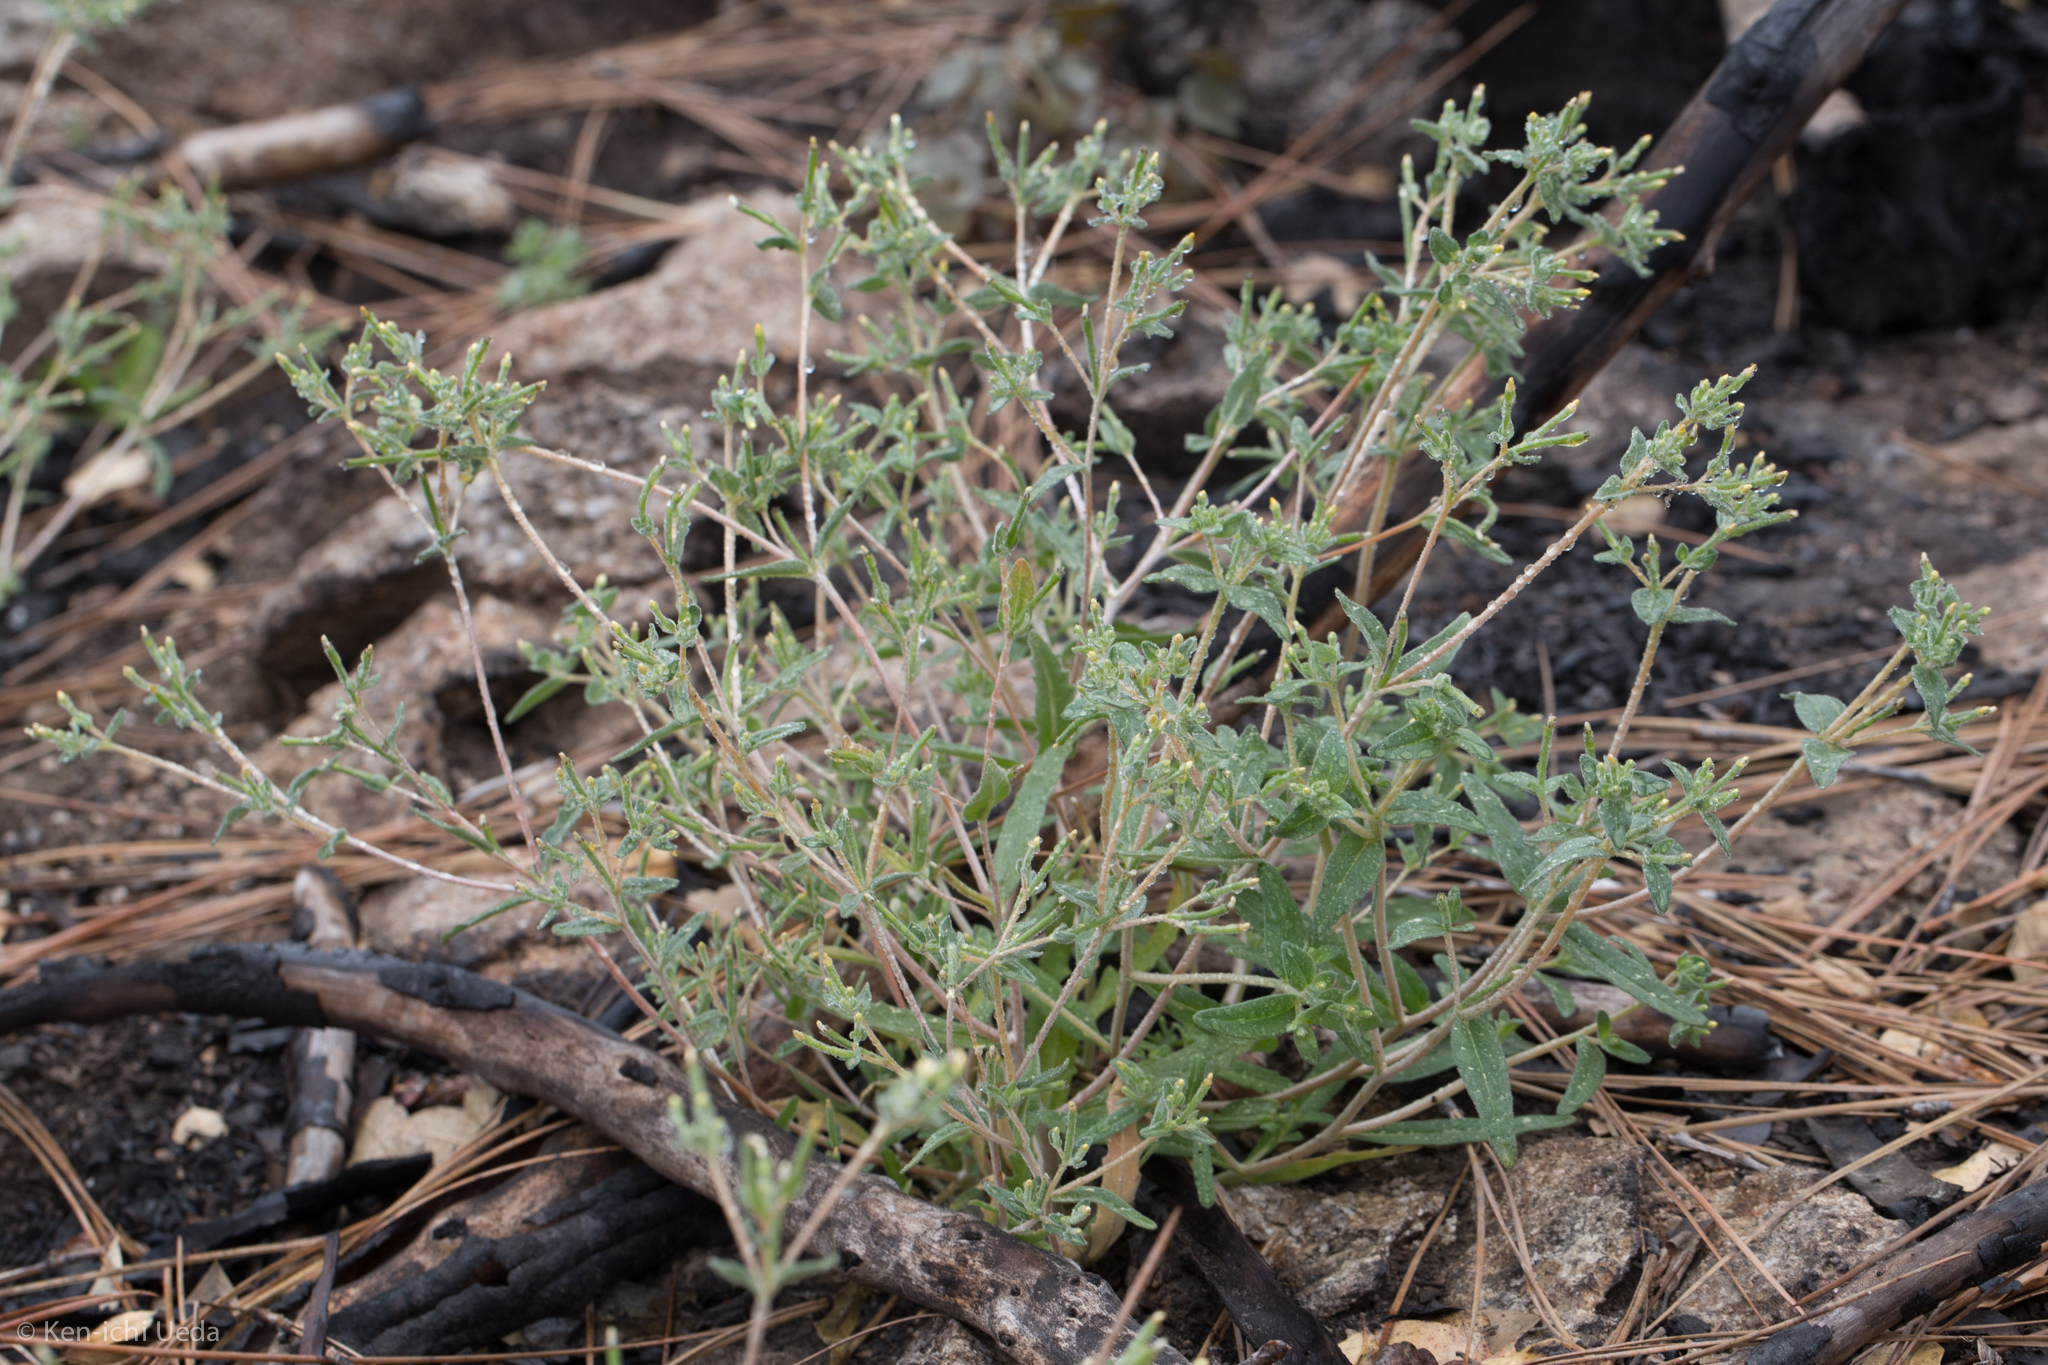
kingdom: Plantae
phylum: Tracheophyta
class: Magnoliopsida
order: Cornales
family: Loasaceae
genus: Mentzelia
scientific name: Mentzelia dispersa
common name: Nada stickleaf
